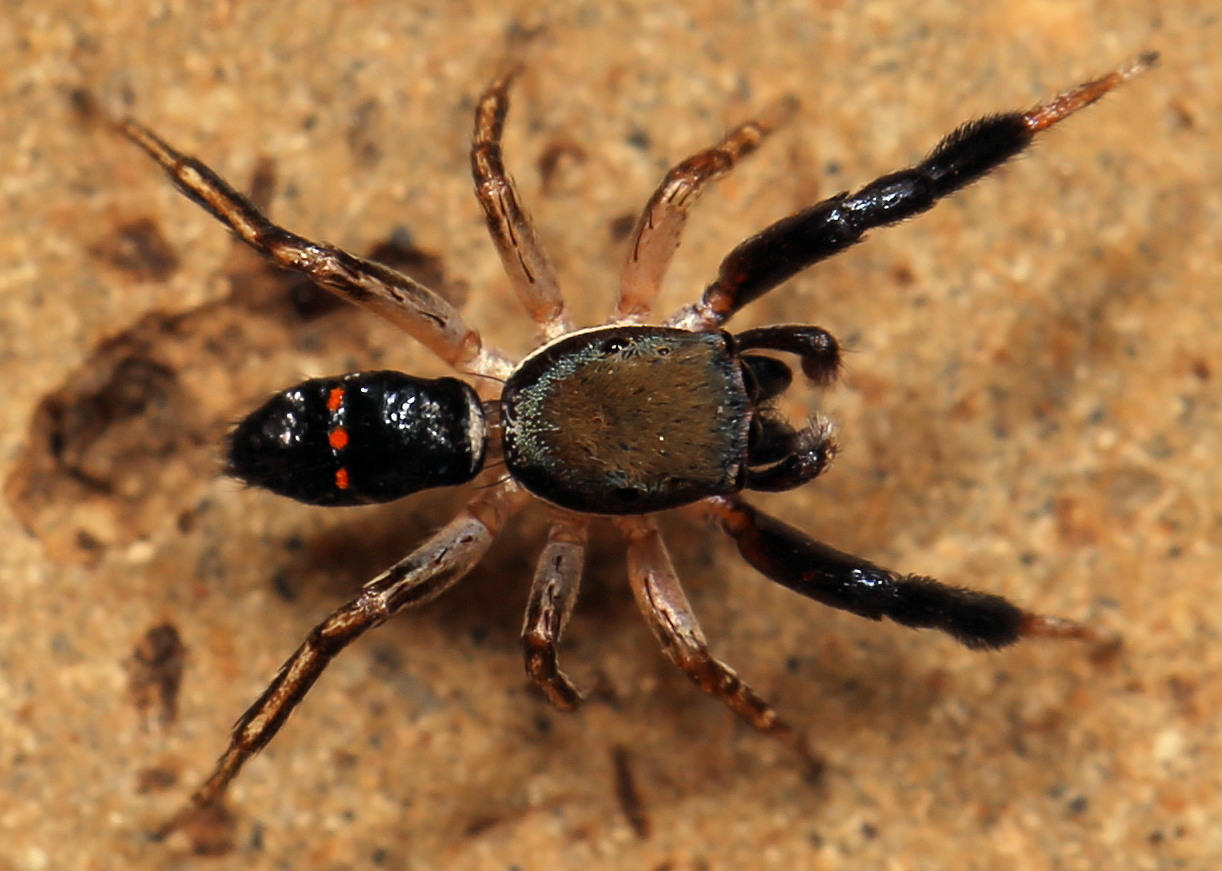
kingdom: Animalia
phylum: Arthropoda
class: Arachnida
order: Araneae
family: Salticidae
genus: Natta
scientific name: Natta horizontalis
